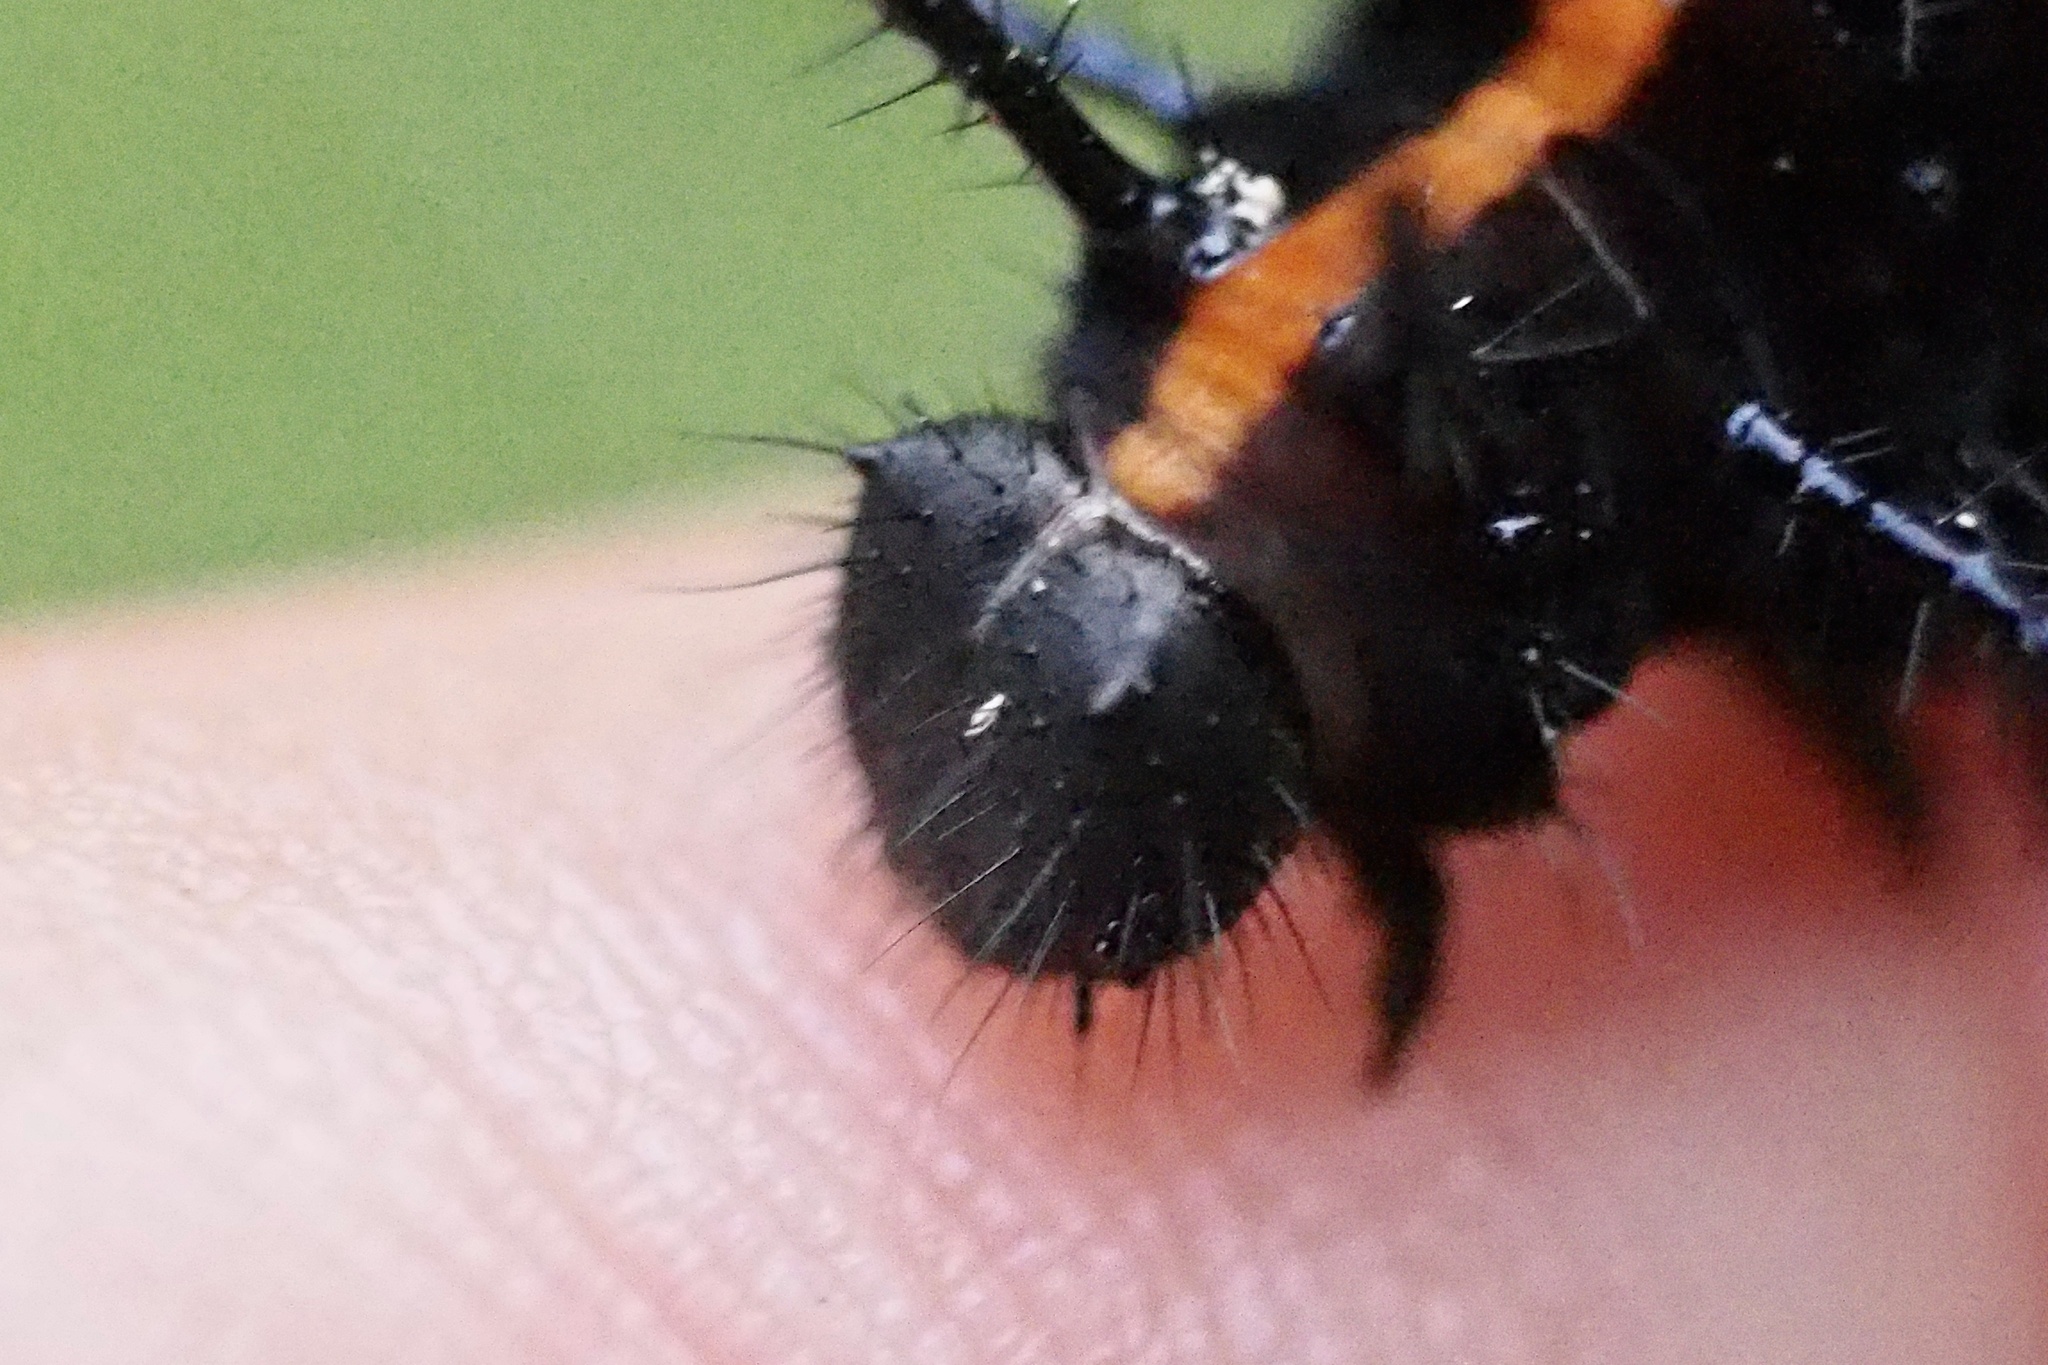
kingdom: Animalia
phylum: Arthropoda
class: Insecta
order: Lepidoptera
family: Nymphalidae
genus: Argynnis
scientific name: Argynnis hyperbius
